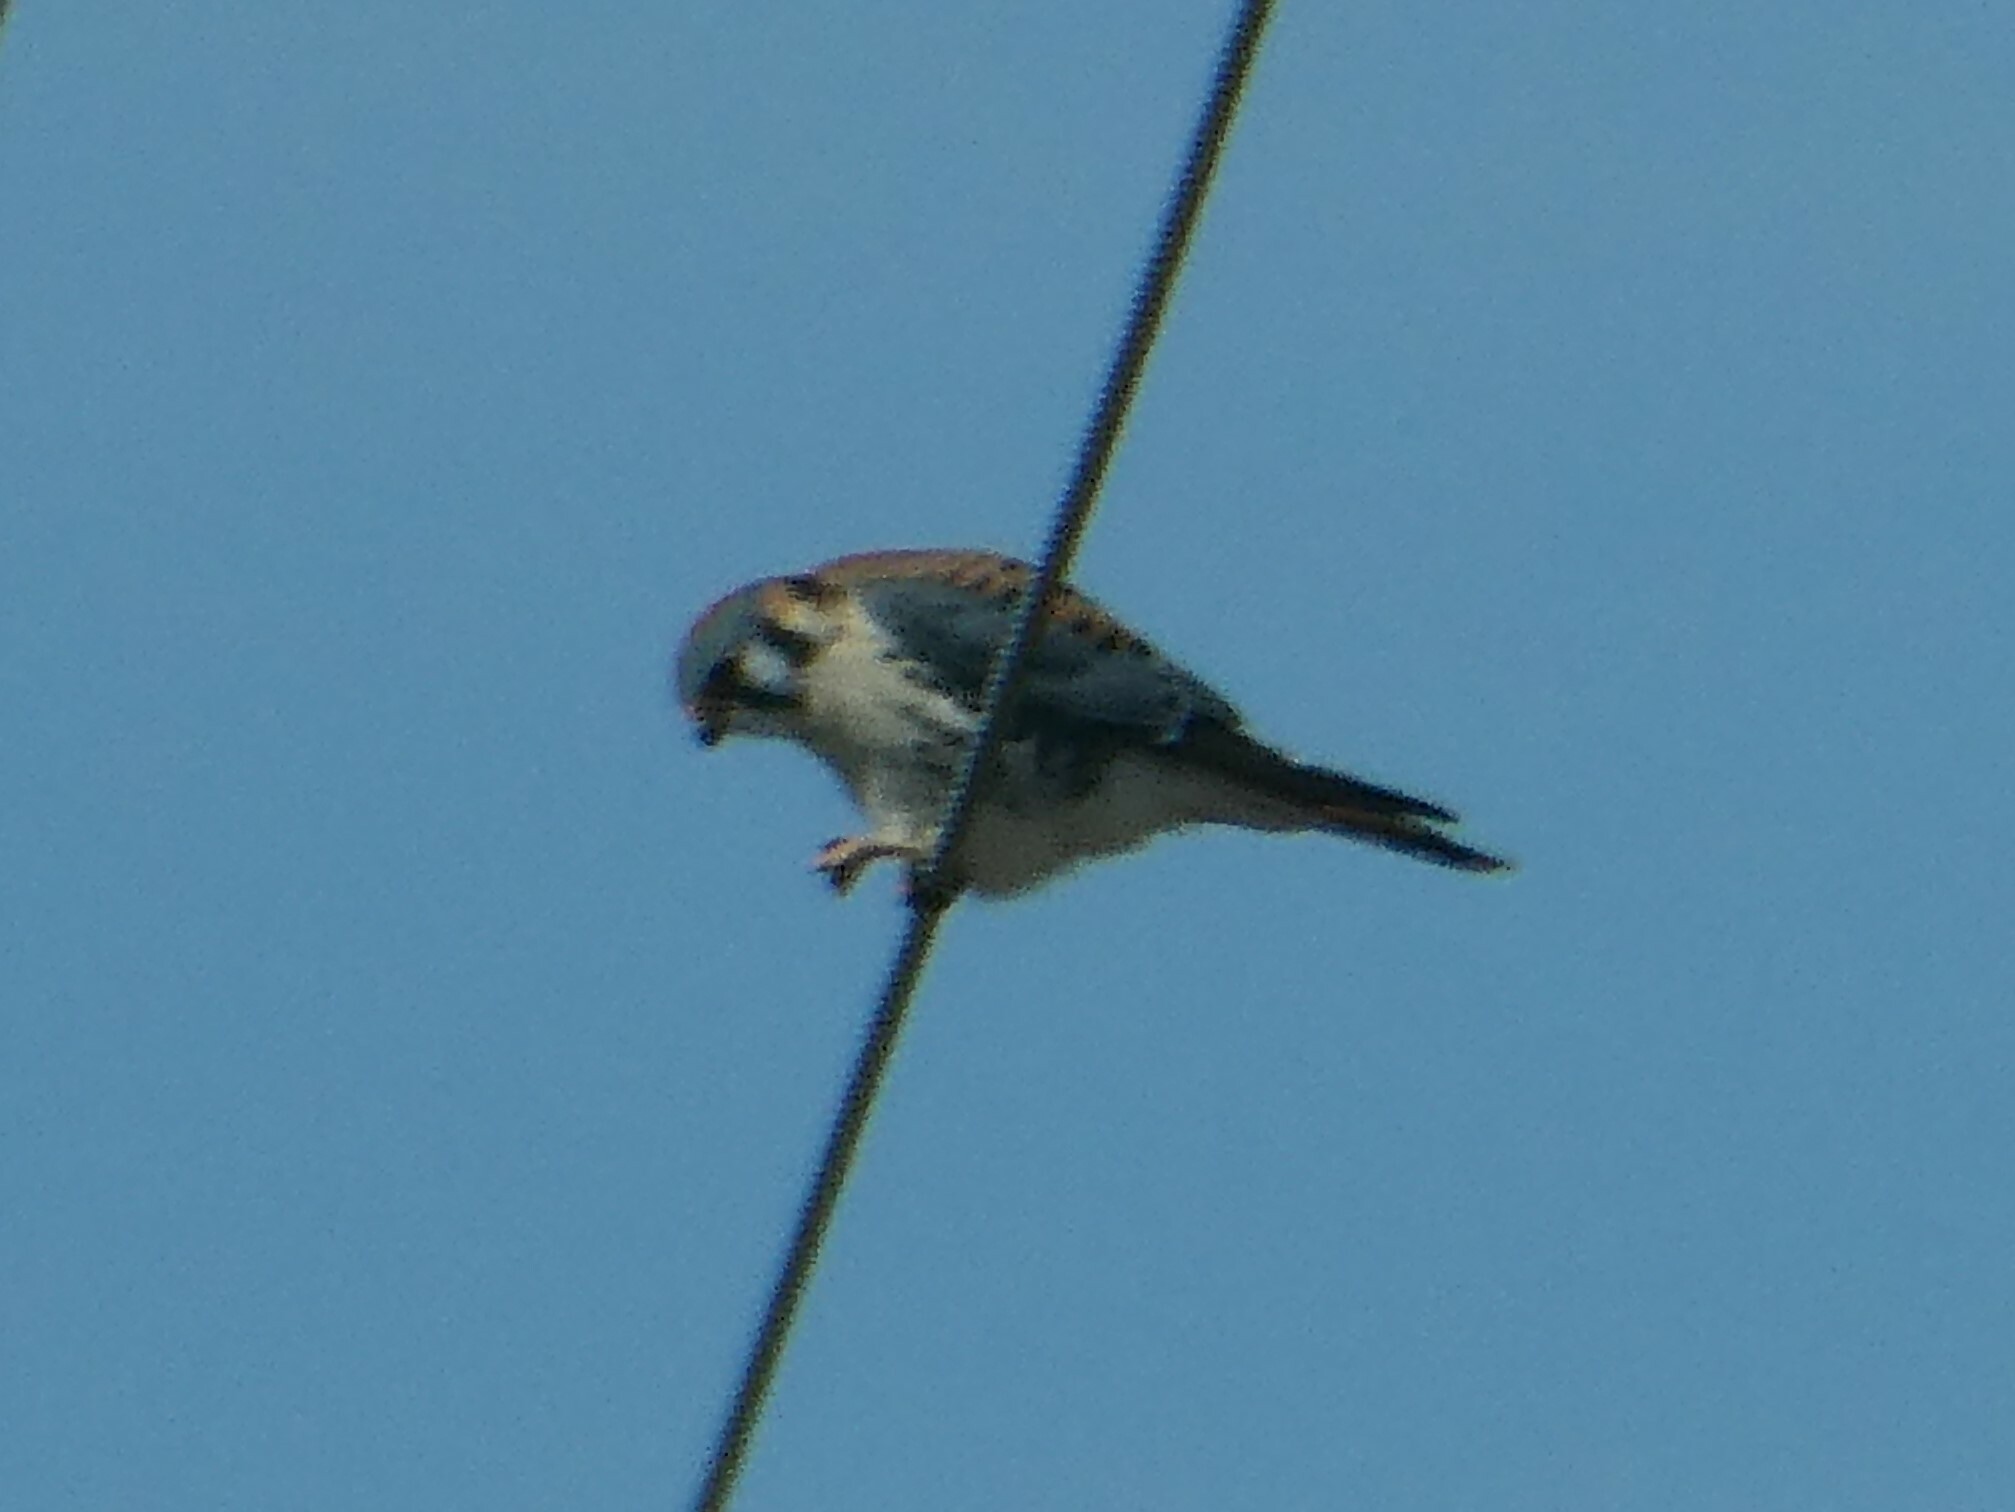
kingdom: Animalia
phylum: Chordata
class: Aves
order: Falconiformes
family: Falconidae
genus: Falco
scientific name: Falco sparverius
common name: American kestrel
